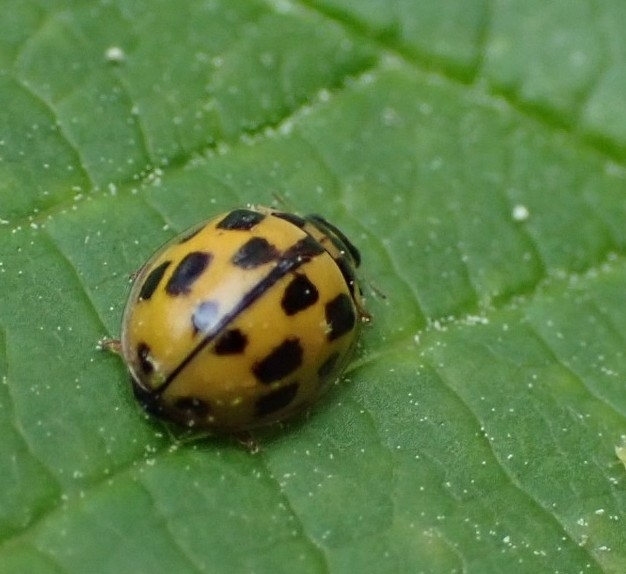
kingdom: Animalia
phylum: Arthropoda
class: Insecta
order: Coleoptera
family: Coccinellidae
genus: Propylaea
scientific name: Propylaea quatuordecimpunctata
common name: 14-spotted ladybird beetle
